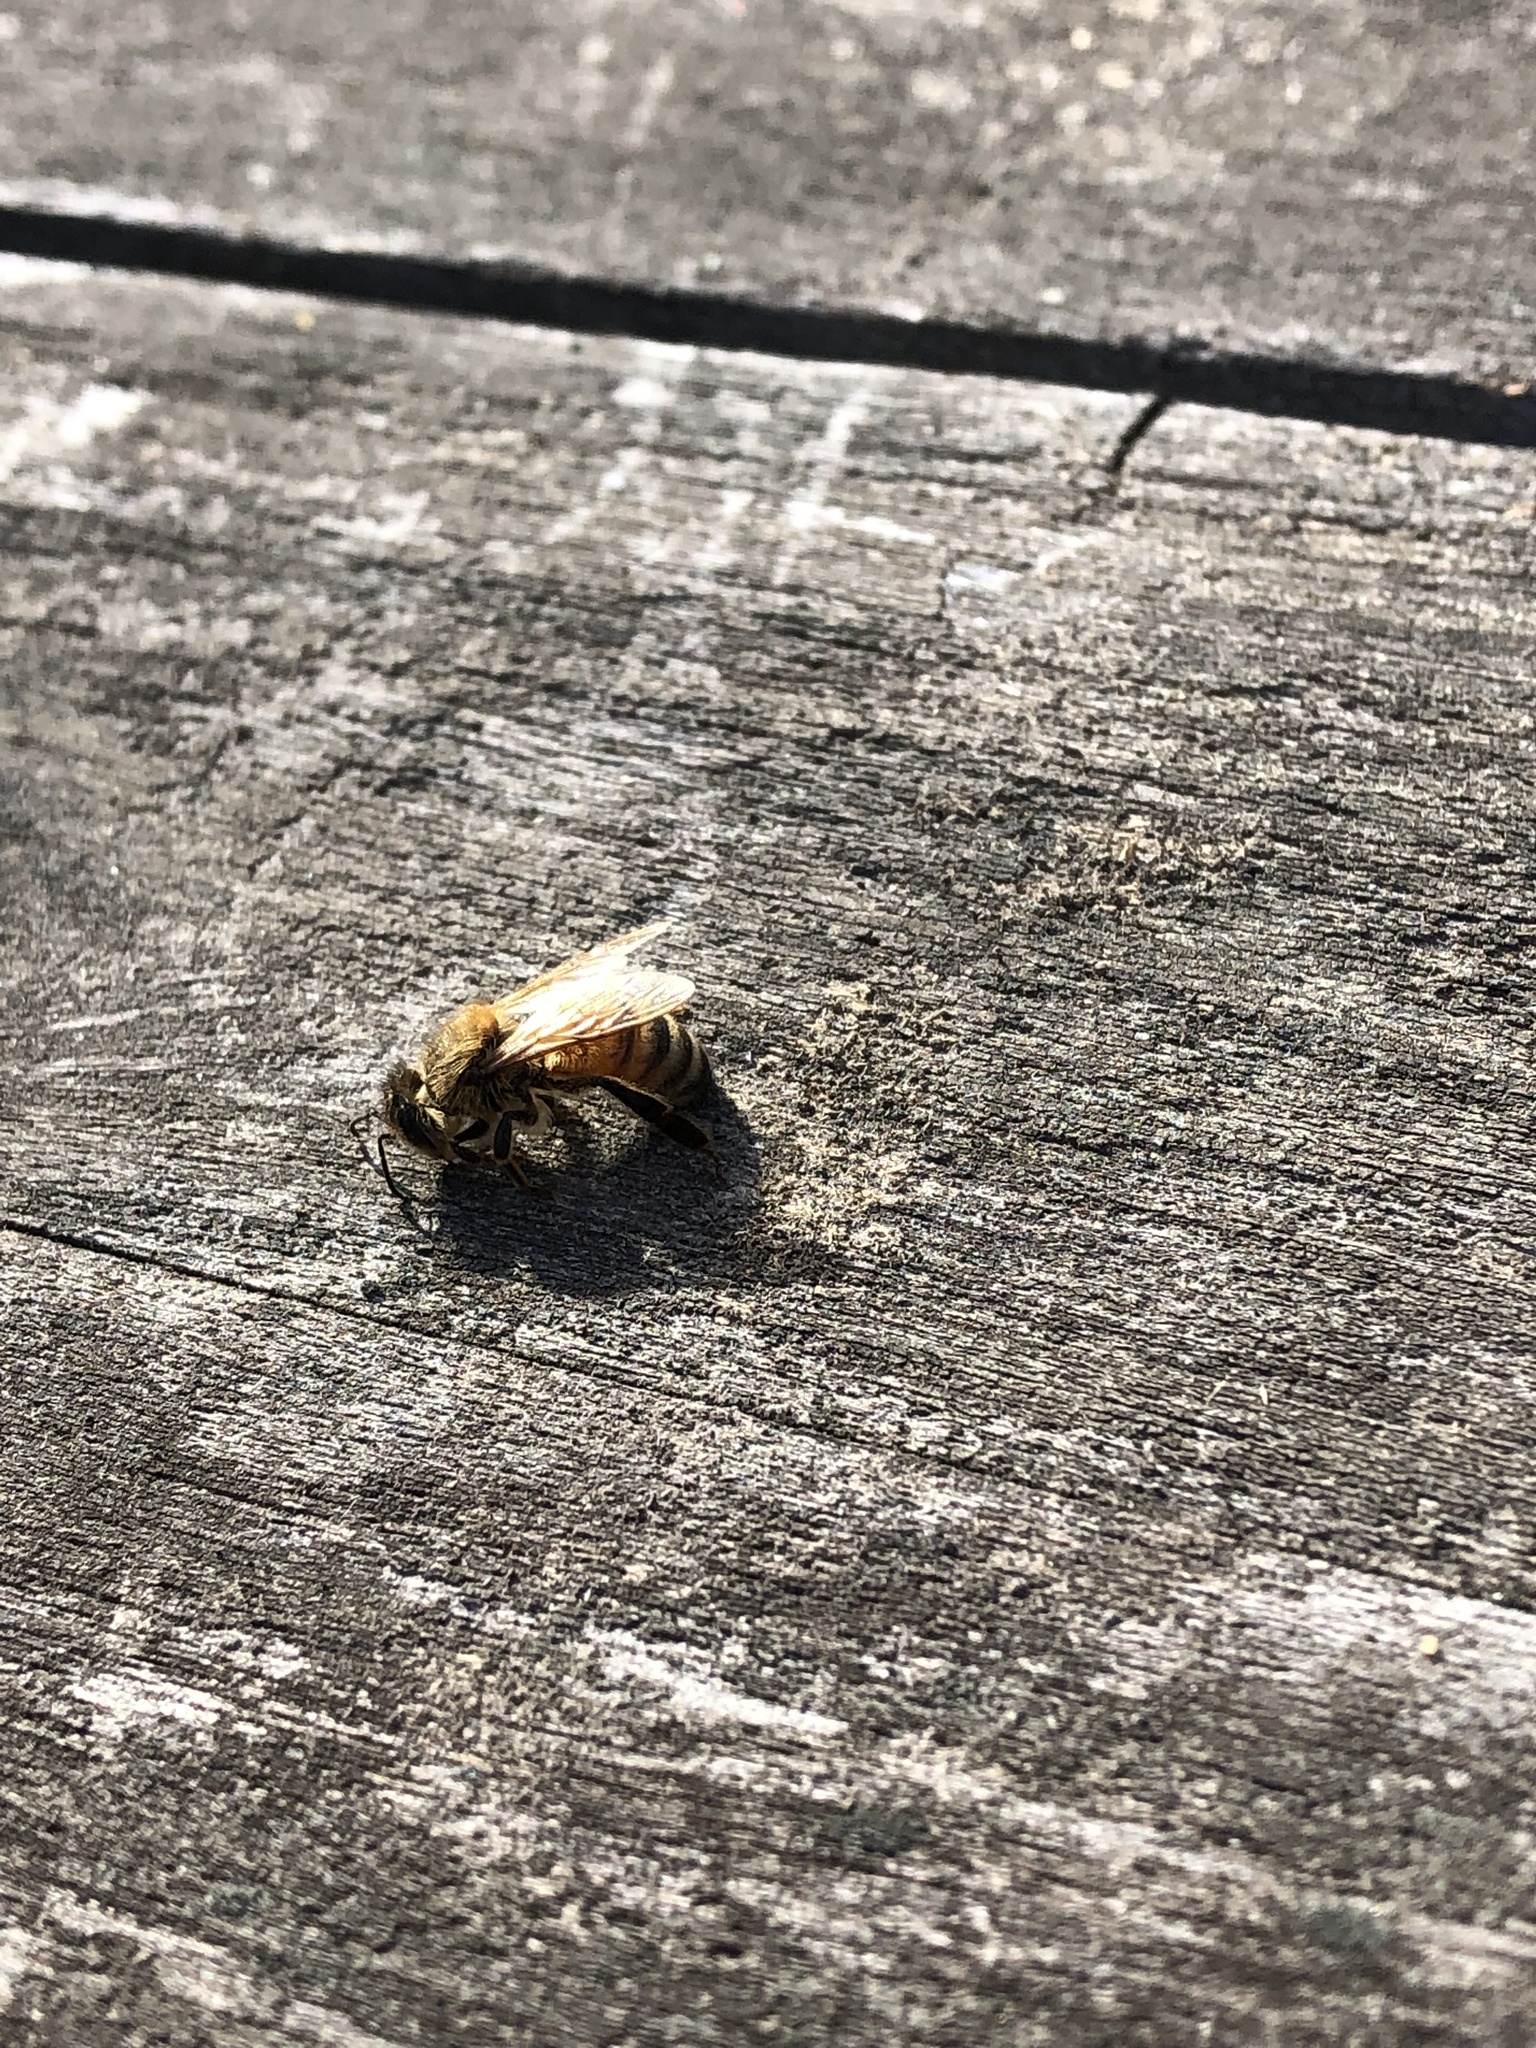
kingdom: Animalia
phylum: Arthropoda
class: Insecta
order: Hymenoptera
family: Apidae
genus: Apis
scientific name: Apis mellifera
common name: Honey bee
